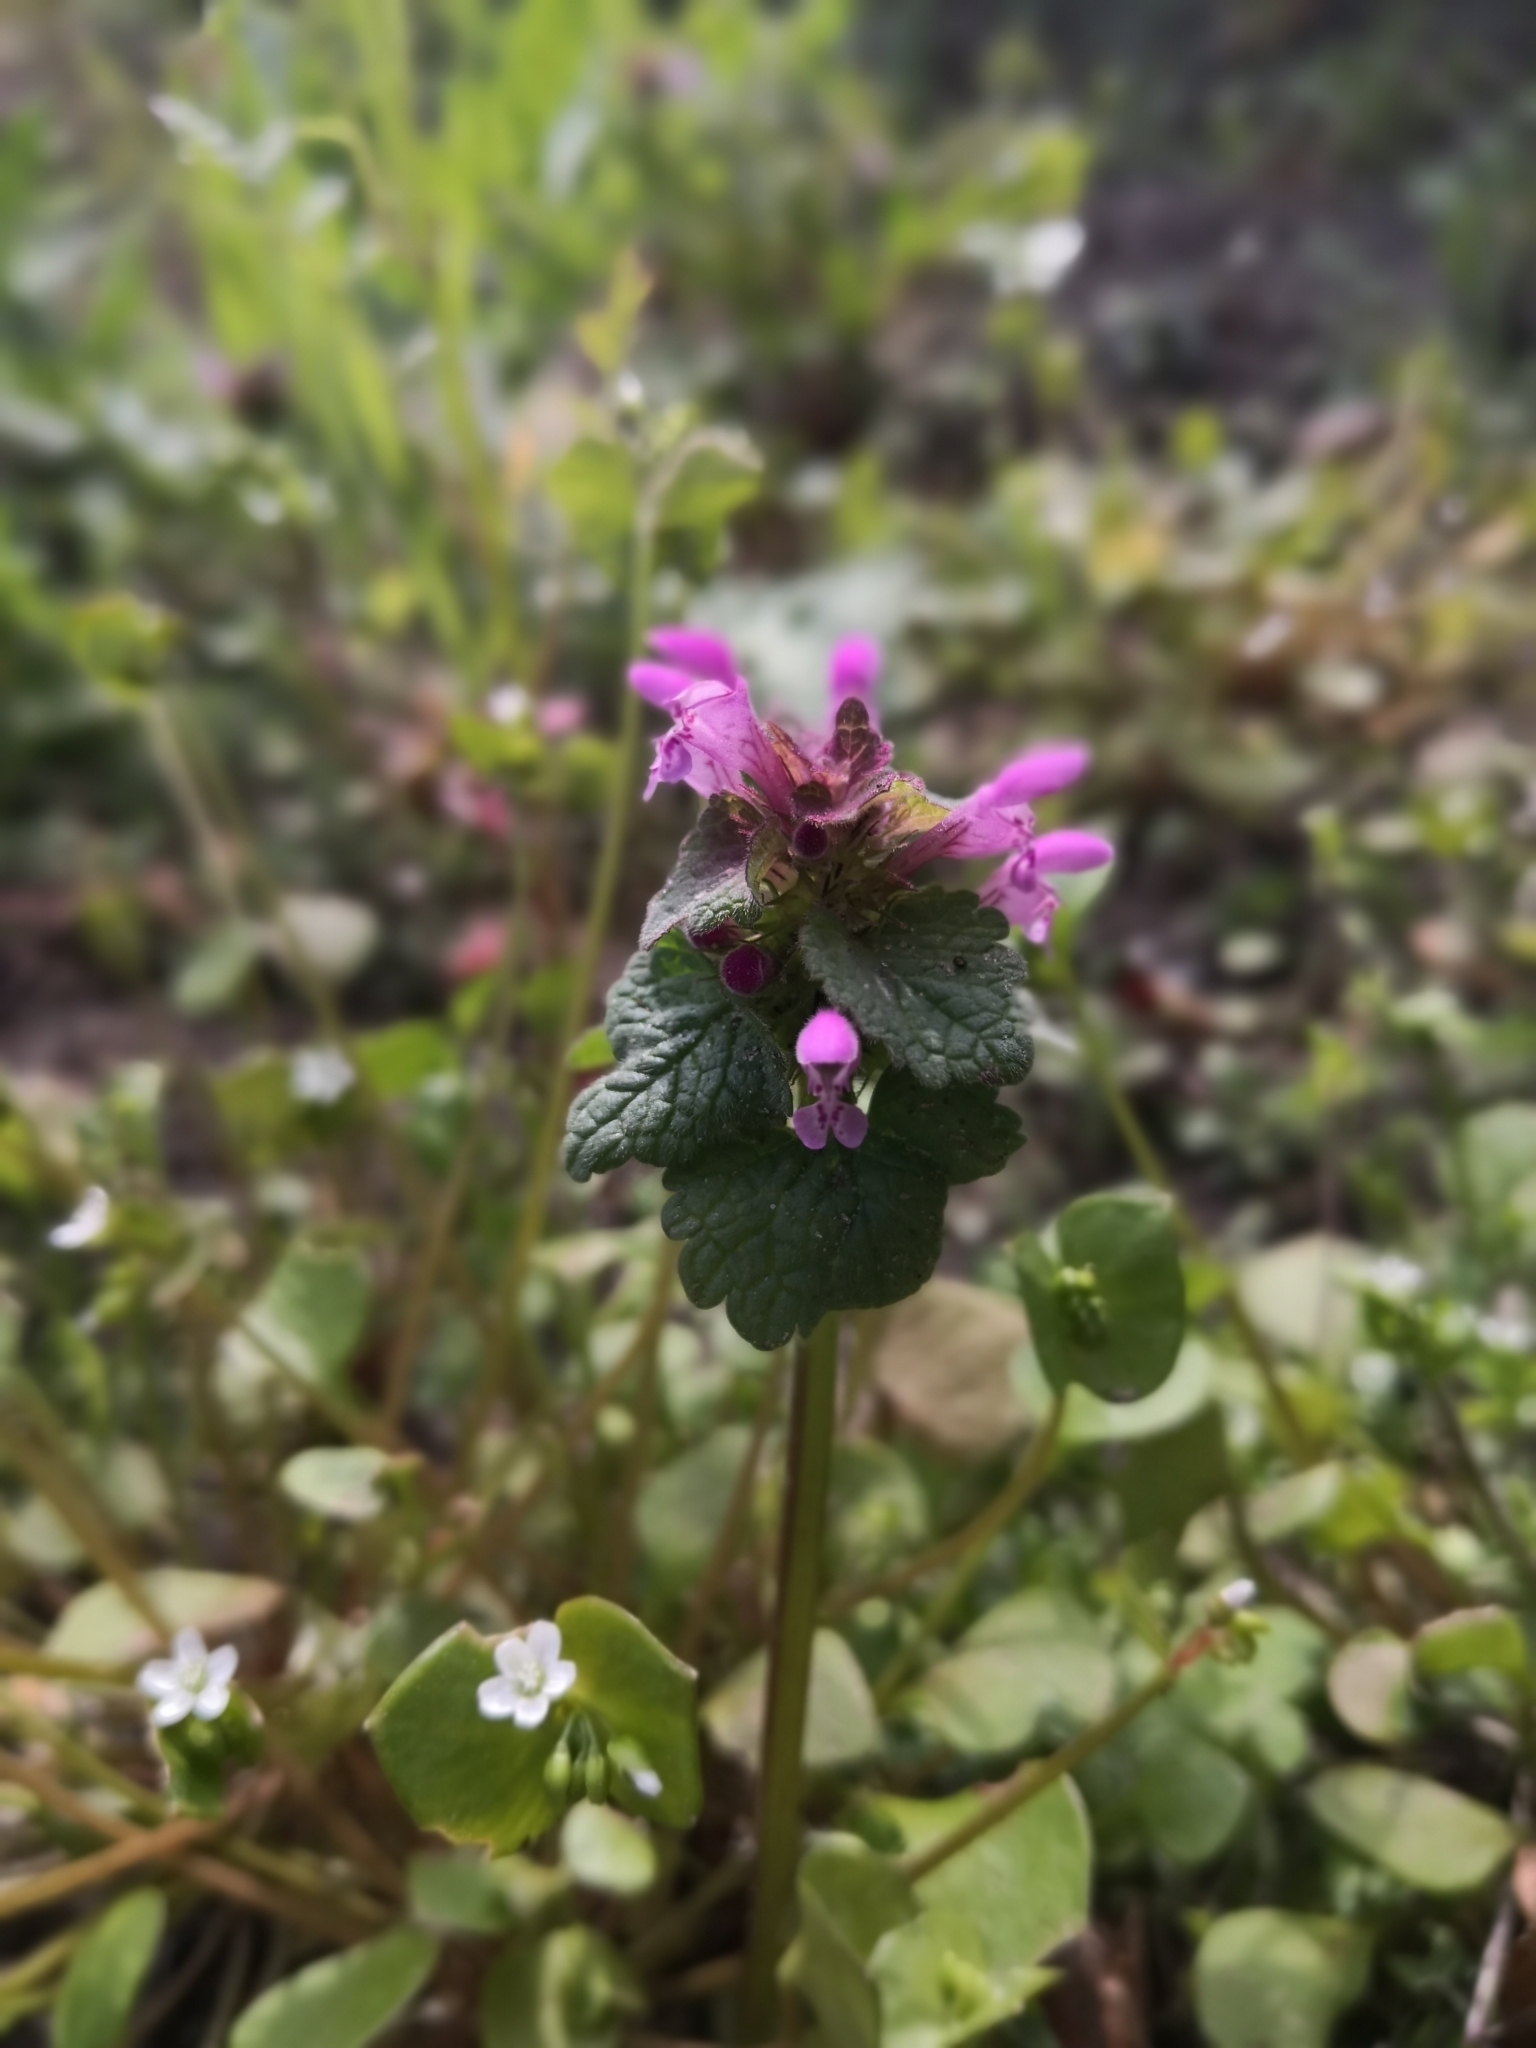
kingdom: Plantae
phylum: Tracheophyta
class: Magnoliopsida
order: Lamiales
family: Lamiaceae
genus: Lamium
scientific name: Lamium purpureum
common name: Red dead-nettle
